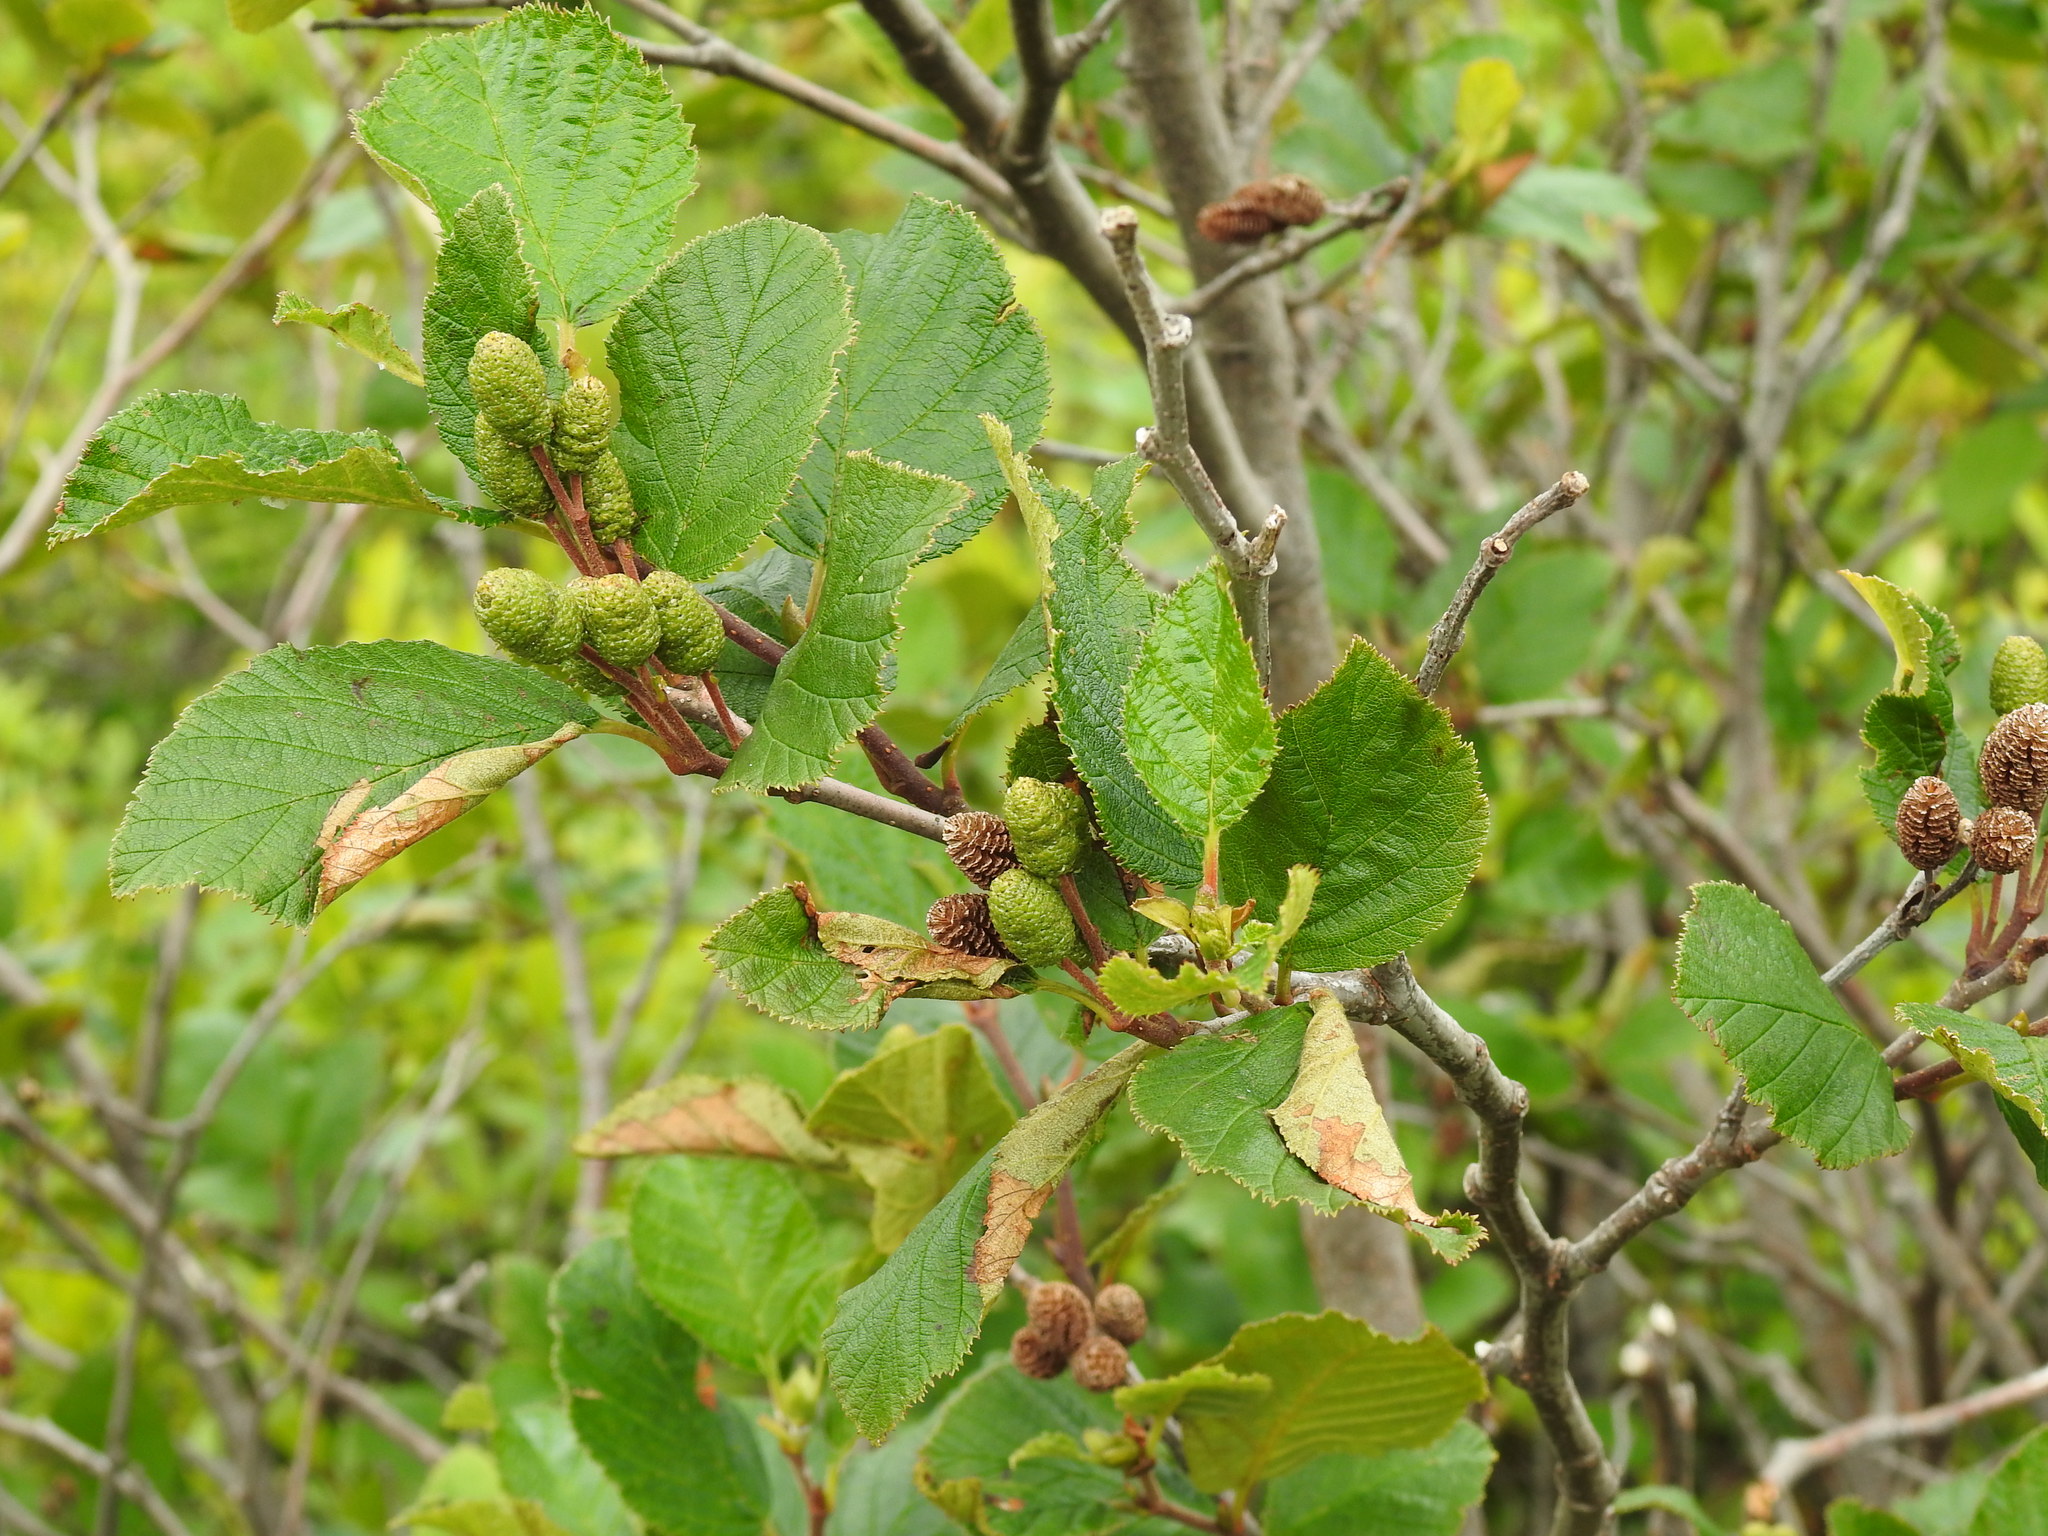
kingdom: Plantae
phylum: Tracheophyta
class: Magnoliopsida
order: Fagales
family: Betulaceae
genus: Alnus
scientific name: Alnus alnobetula
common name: Green alder
